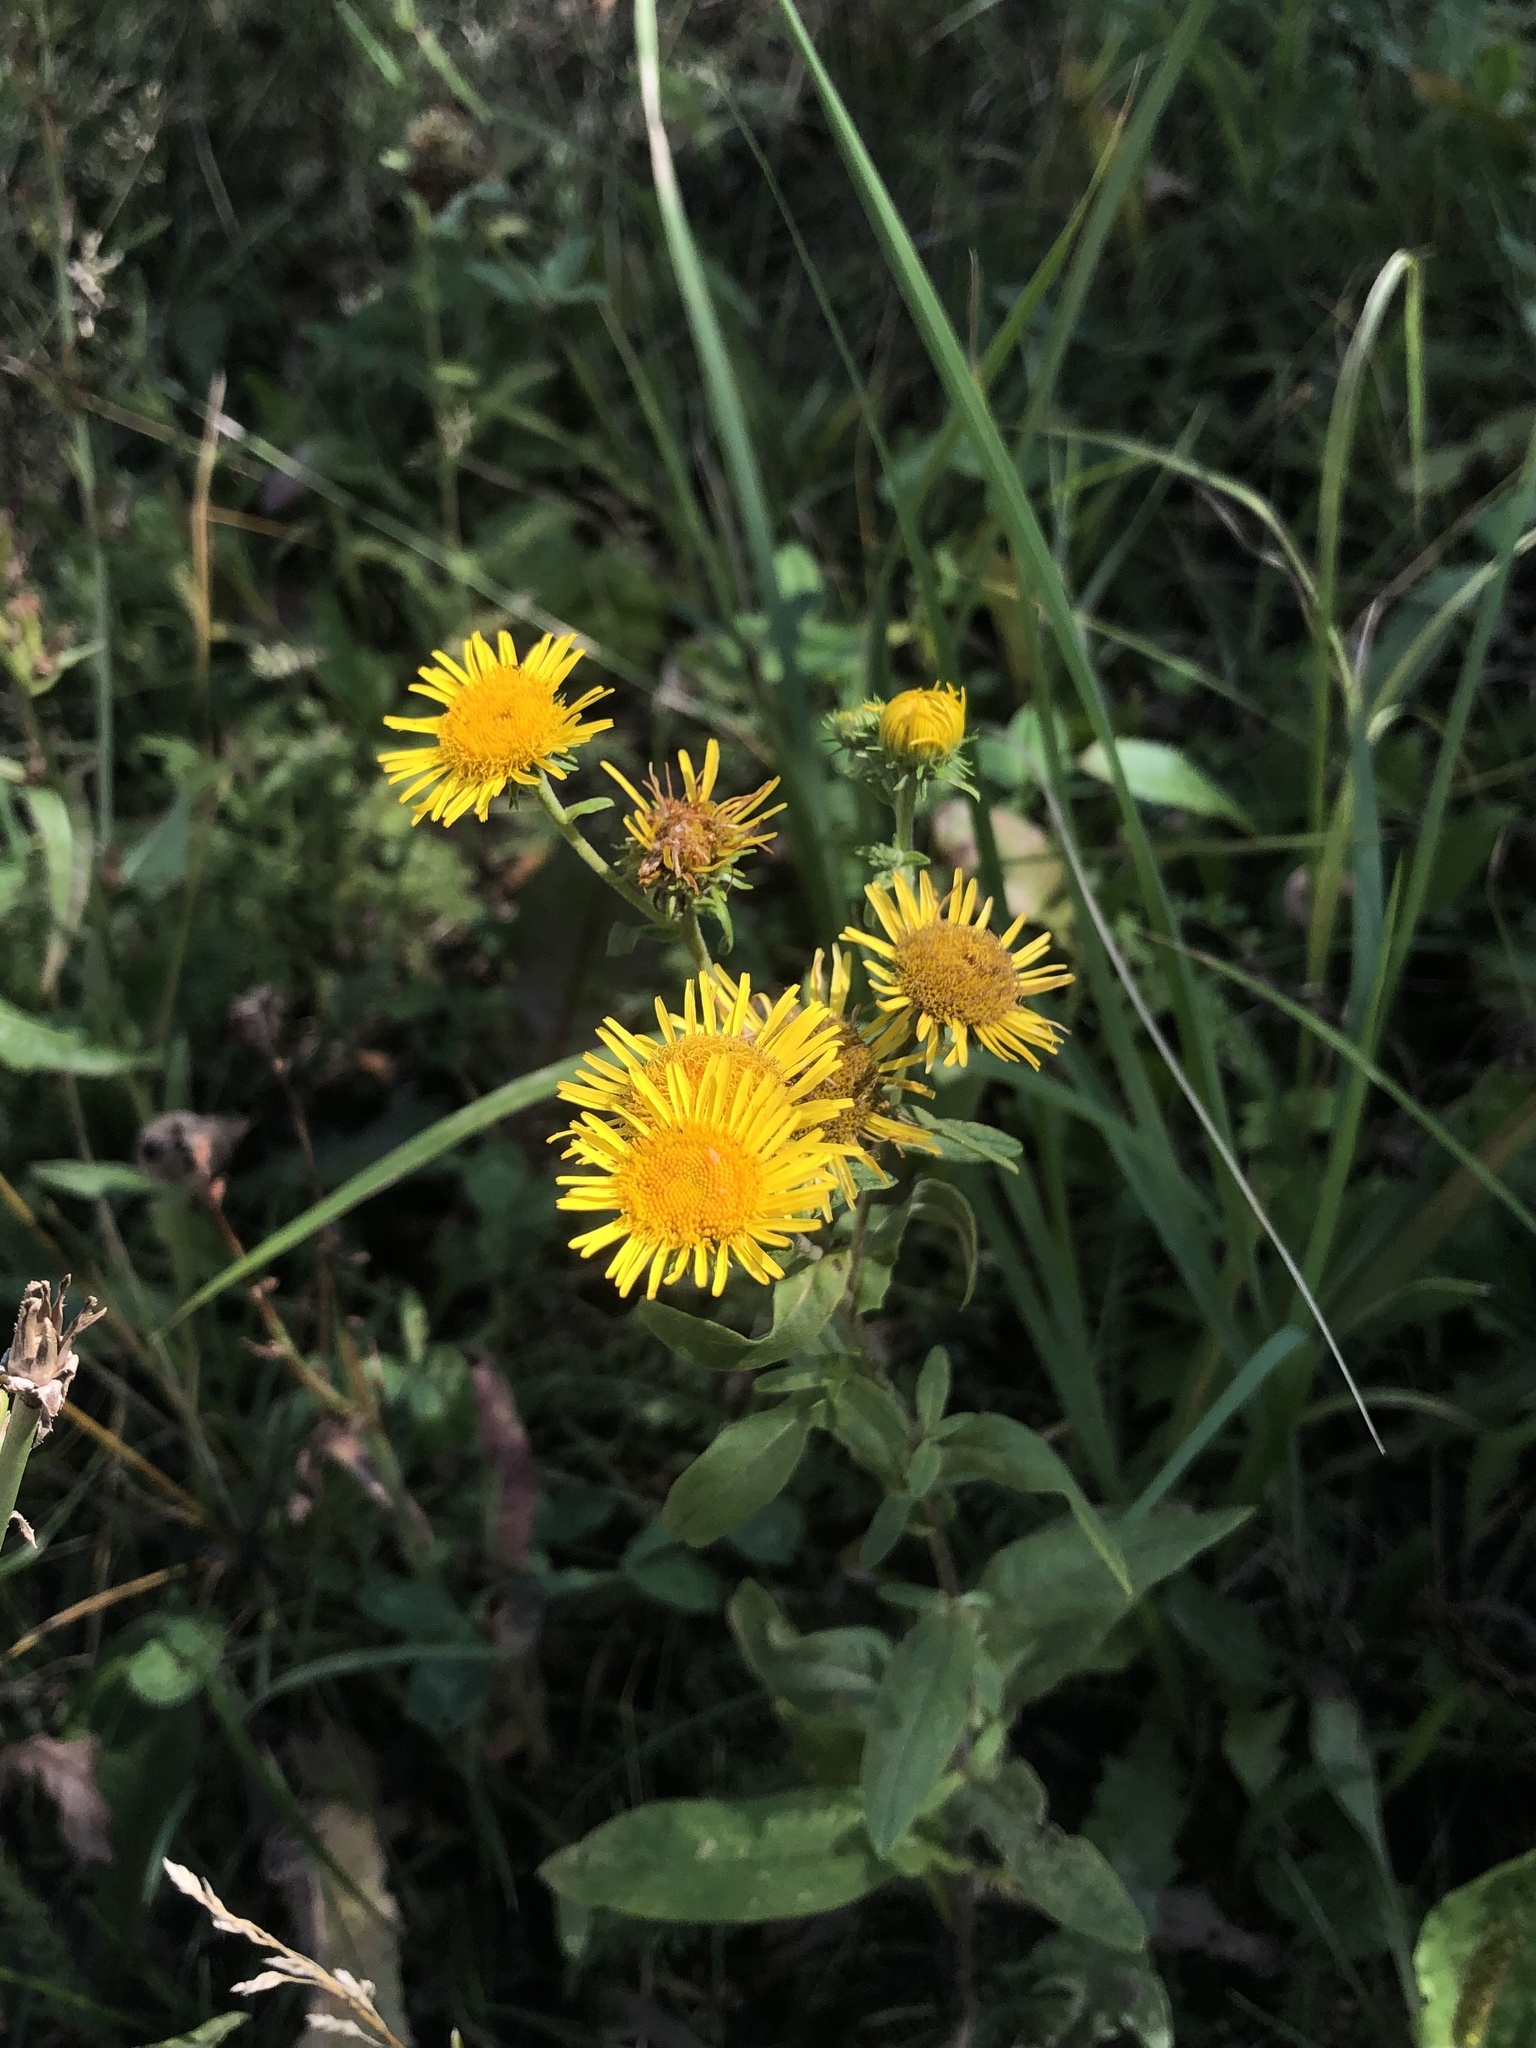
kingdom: Plantae
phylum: Tracheophyta
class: Magnoliopsida
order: Asterales
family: Asteraceae
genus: Pentanema
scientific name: Pentanema britannicum
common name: British elecampane
